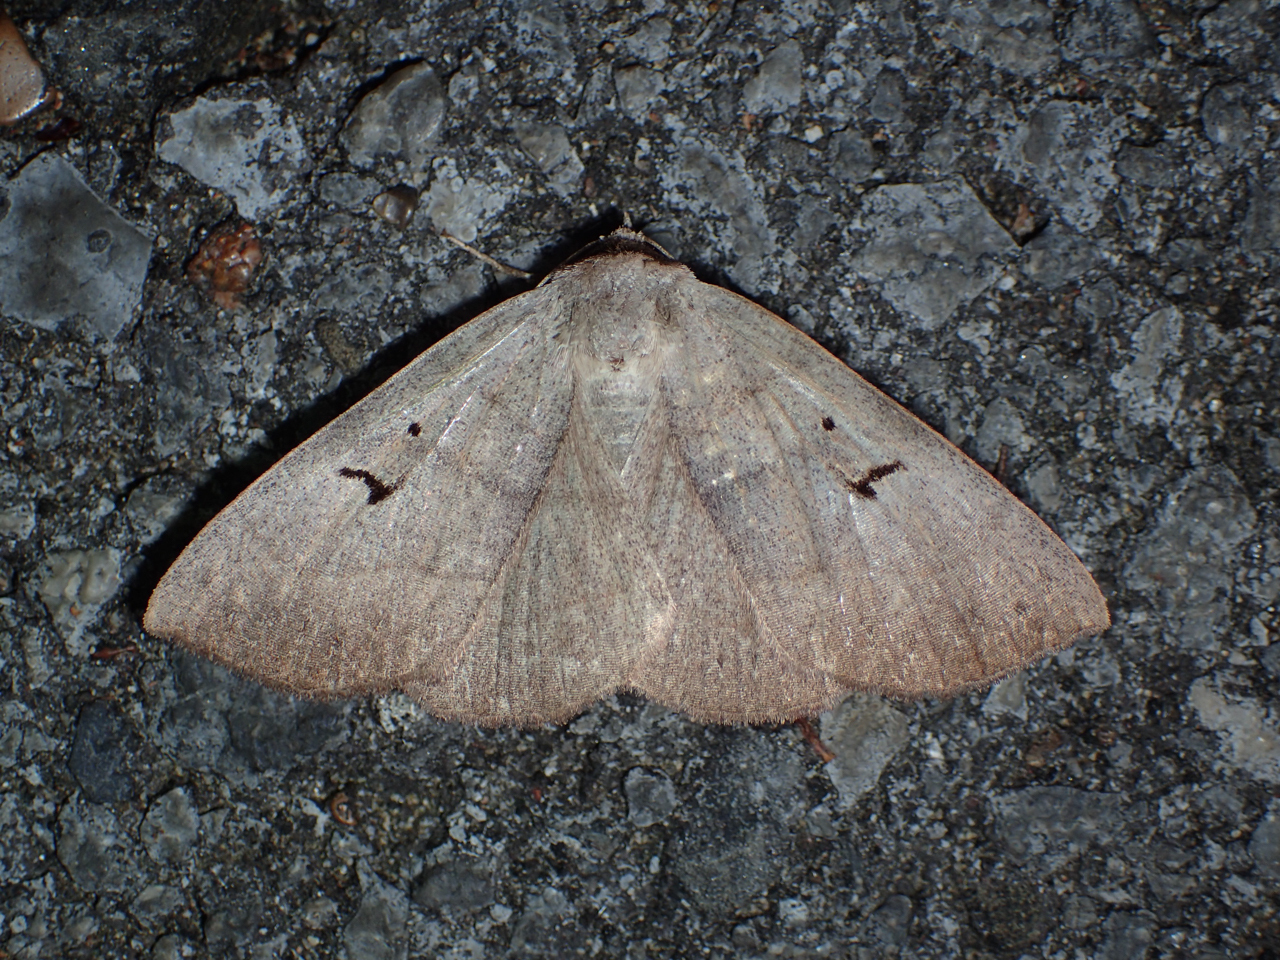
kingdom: Animalia
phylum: Arthropoda
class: Insecta
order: Lepidoptera
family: Erebidae
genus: Panopoda
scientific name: Panopoda carneicosta
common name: Brown panopoda moth
